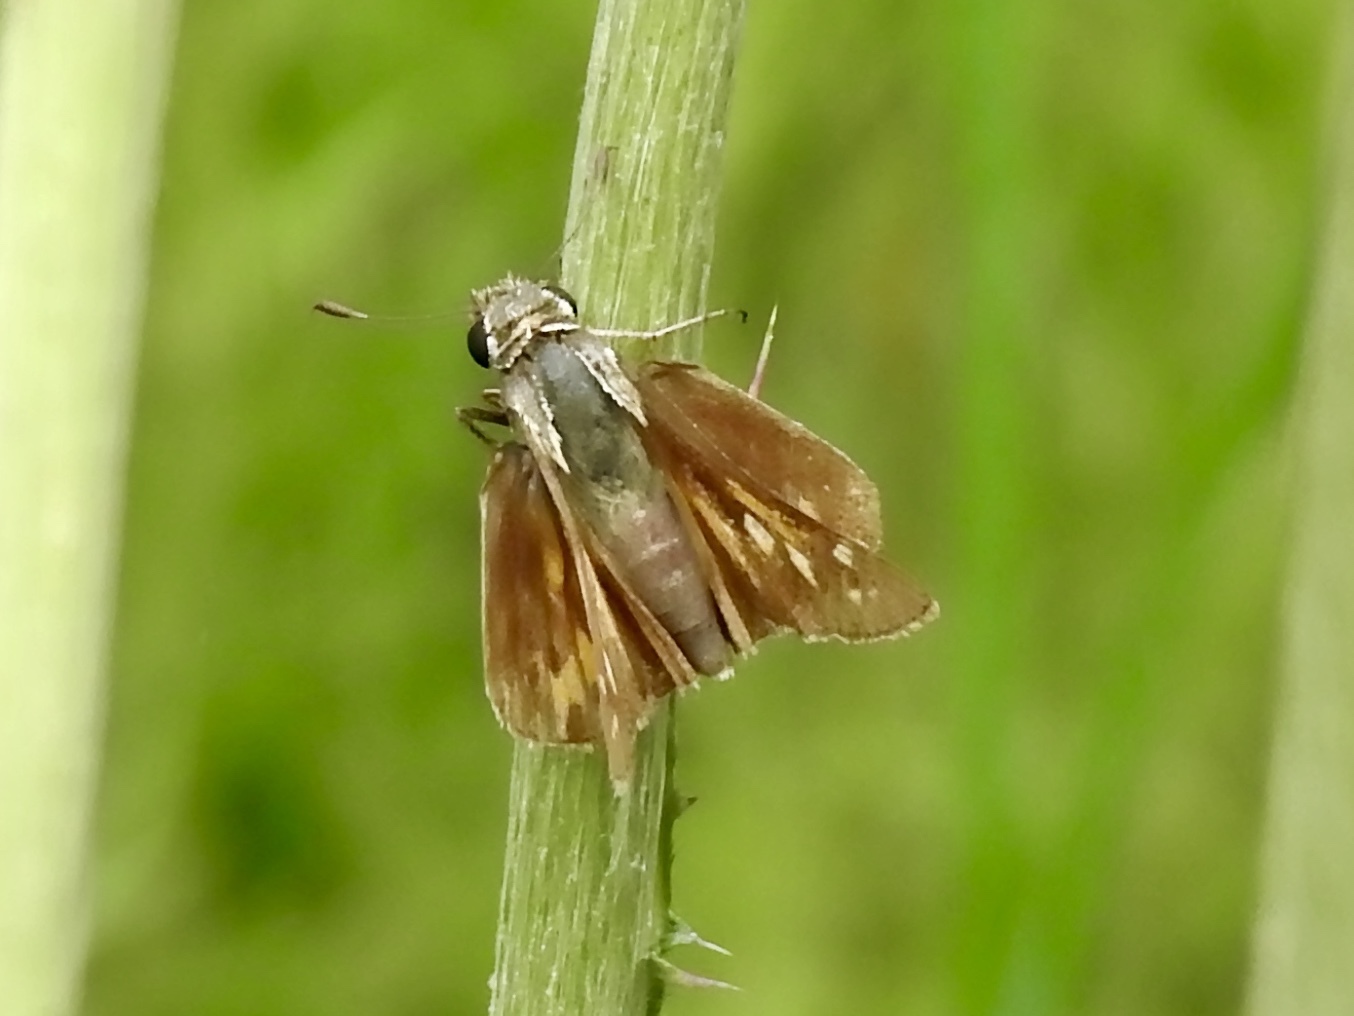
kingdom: Animalia
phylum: Arthropoda
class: Insecta
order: Lepidoptera
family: Hesperiidae
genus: Atalopedes
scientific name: Atalopedes
